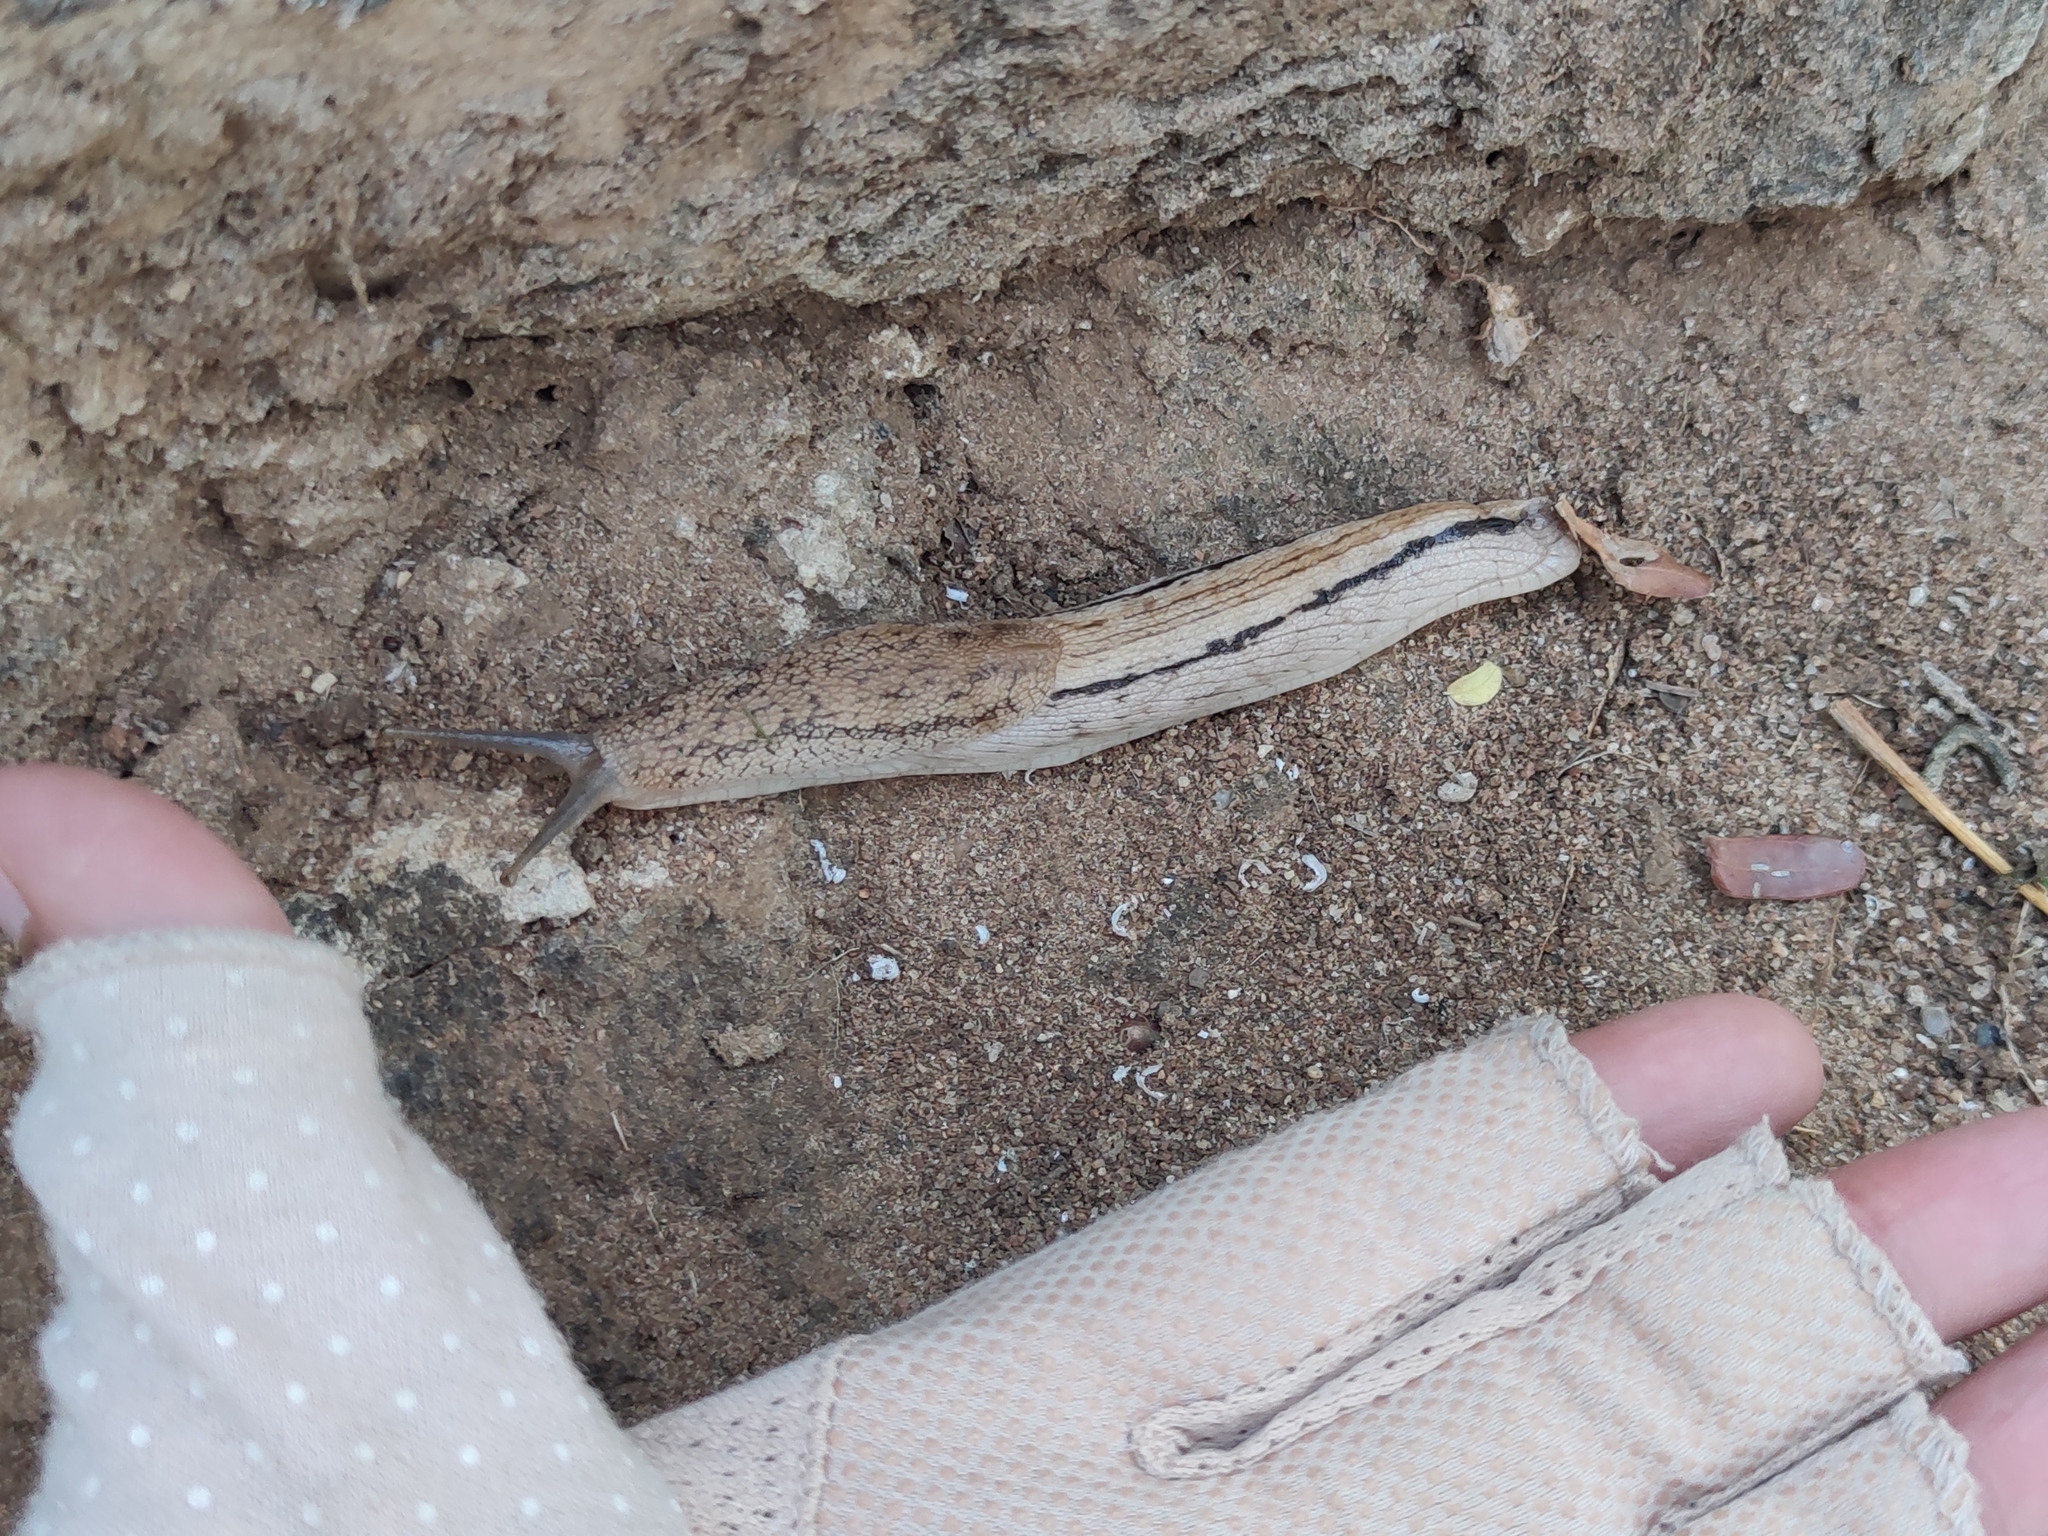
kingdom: Animalia
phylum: Mollusca
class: Gastropoda
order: Stylommatophora
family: Urocyclidae
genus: Urocyclus
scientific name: Urocyclus kirkii
